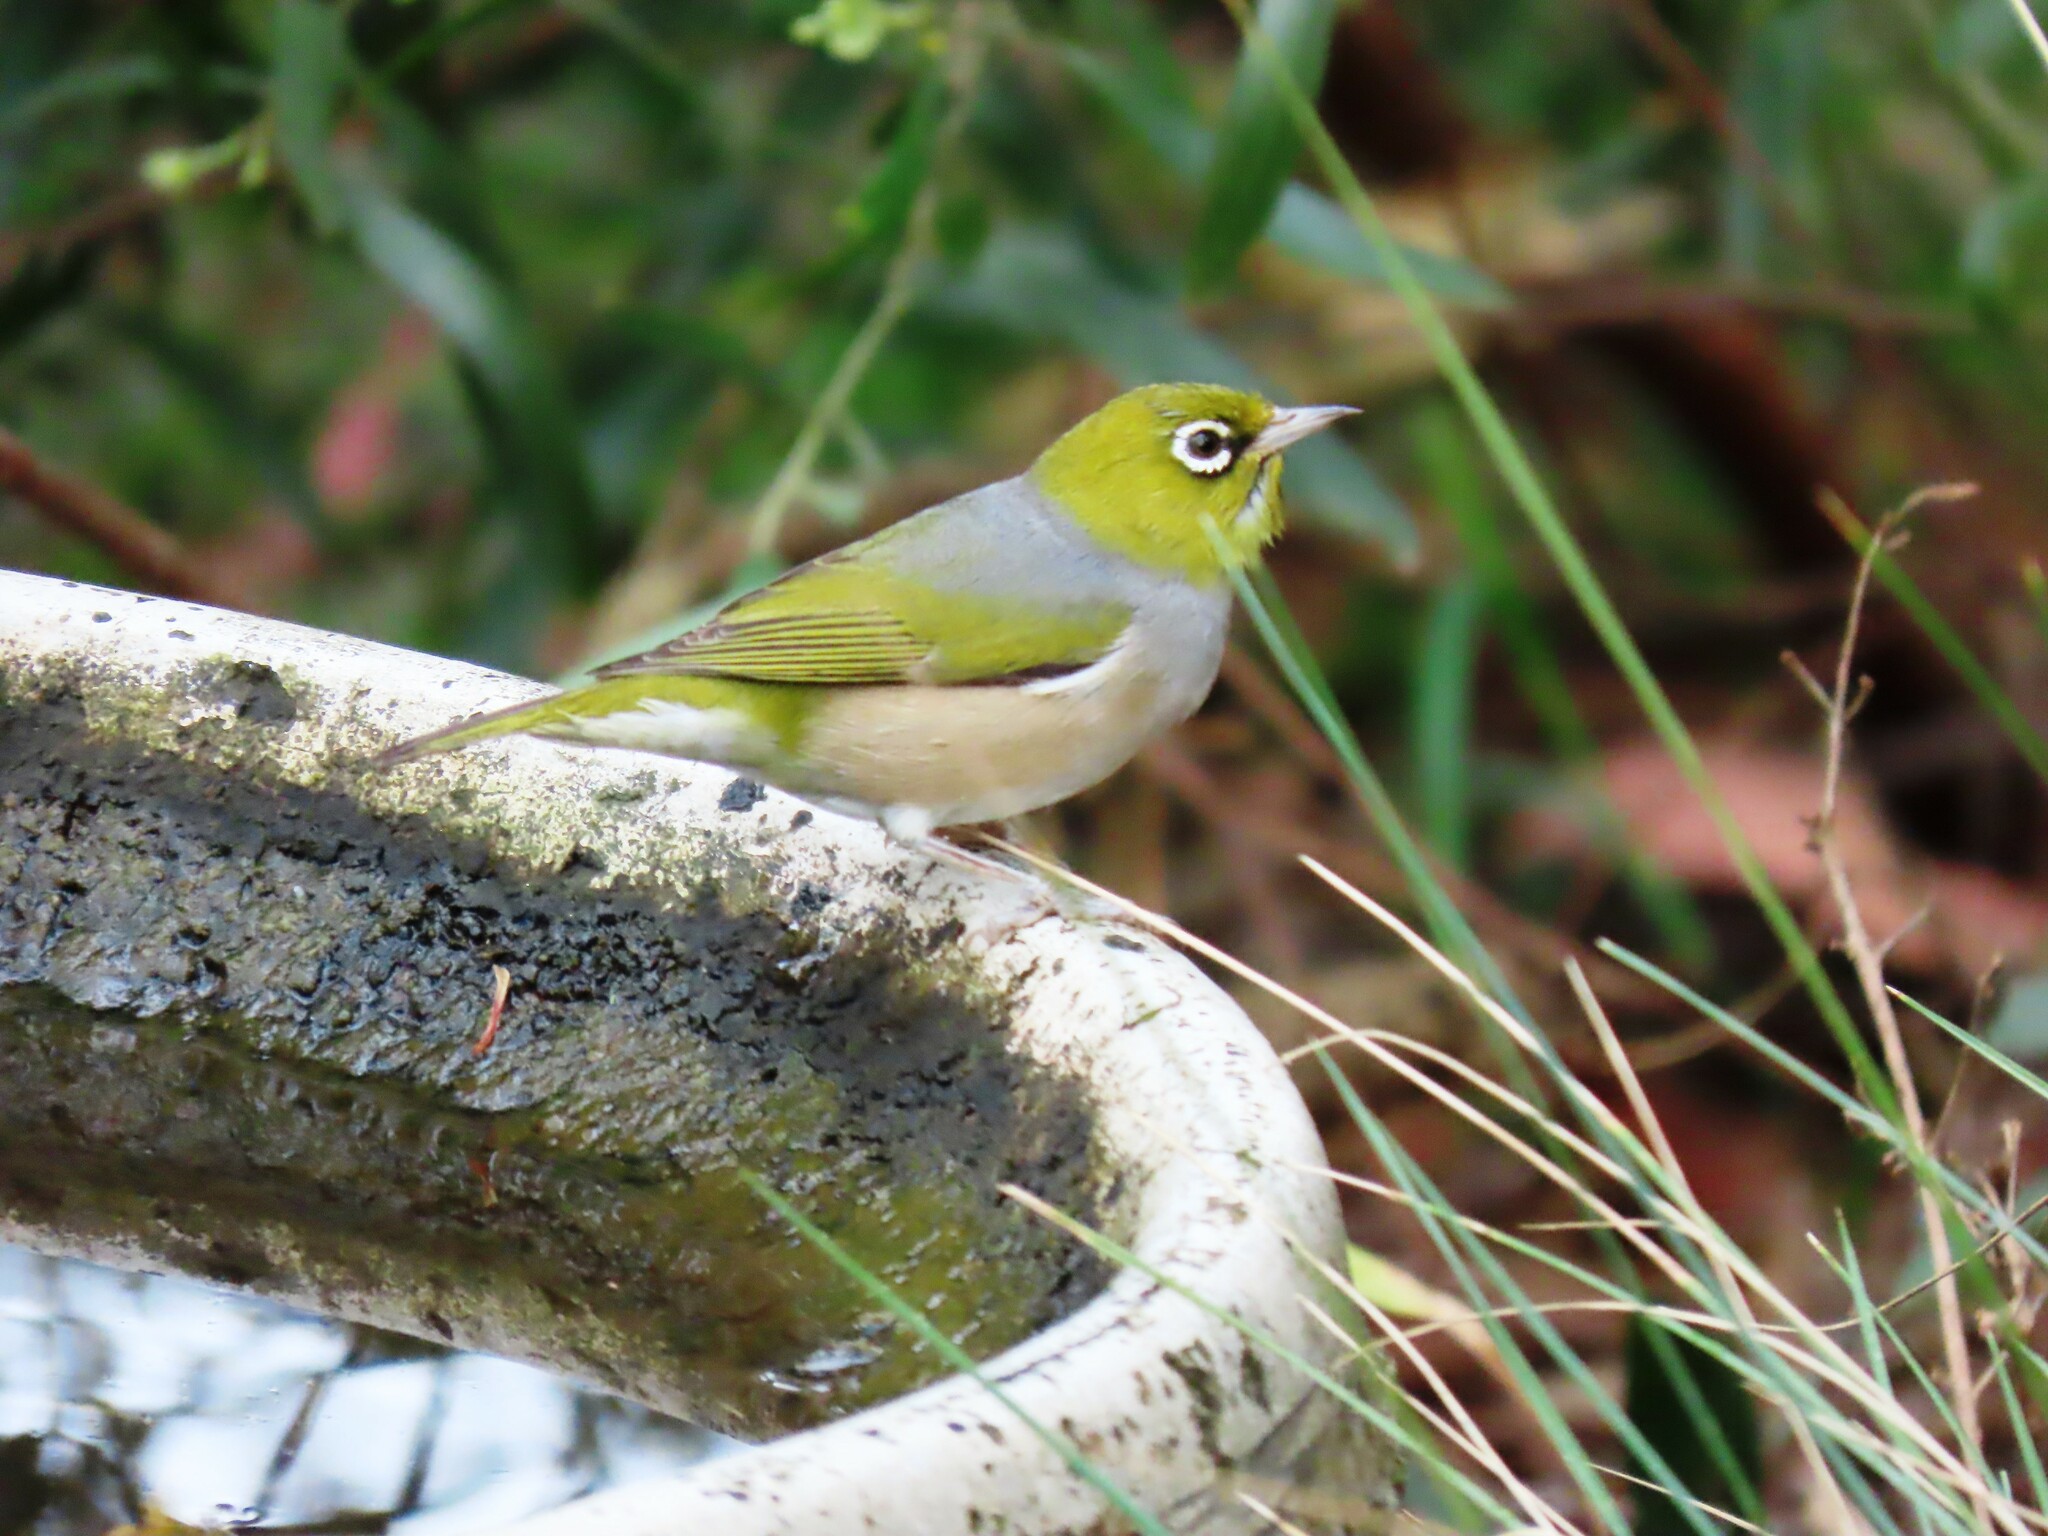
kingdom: Animalia
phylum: Chordata
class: Aves
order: Passeriformes
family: Zosteropidae
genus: Zosterops
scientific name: Zosterops lateralis
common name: Silvereye
